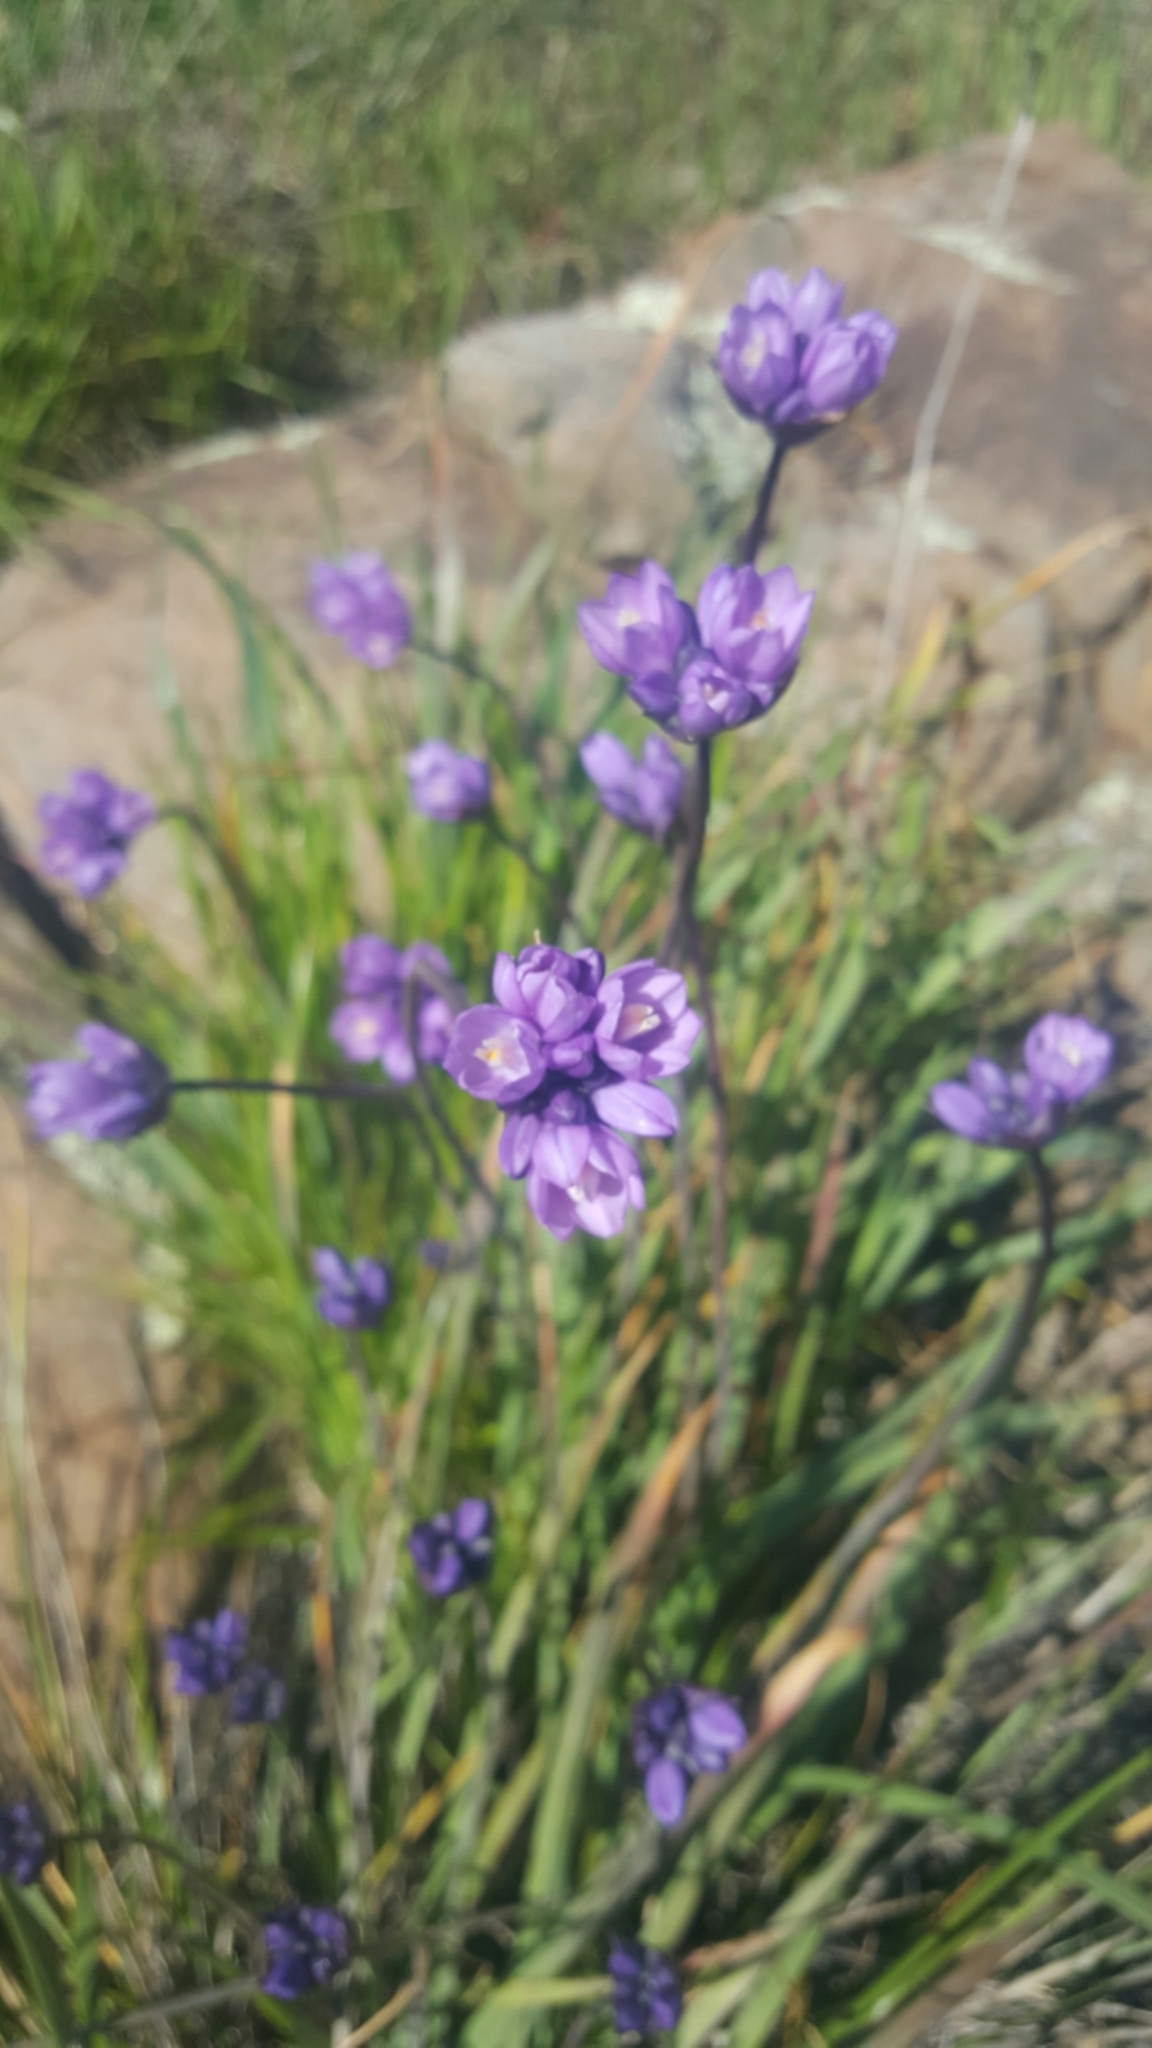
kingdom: Plantae
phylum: Tracheophyta
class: Liliopsida
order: Asparagales
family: Asparagaceae
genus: Dipterostemon
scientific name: Dipterostemon capitatus
